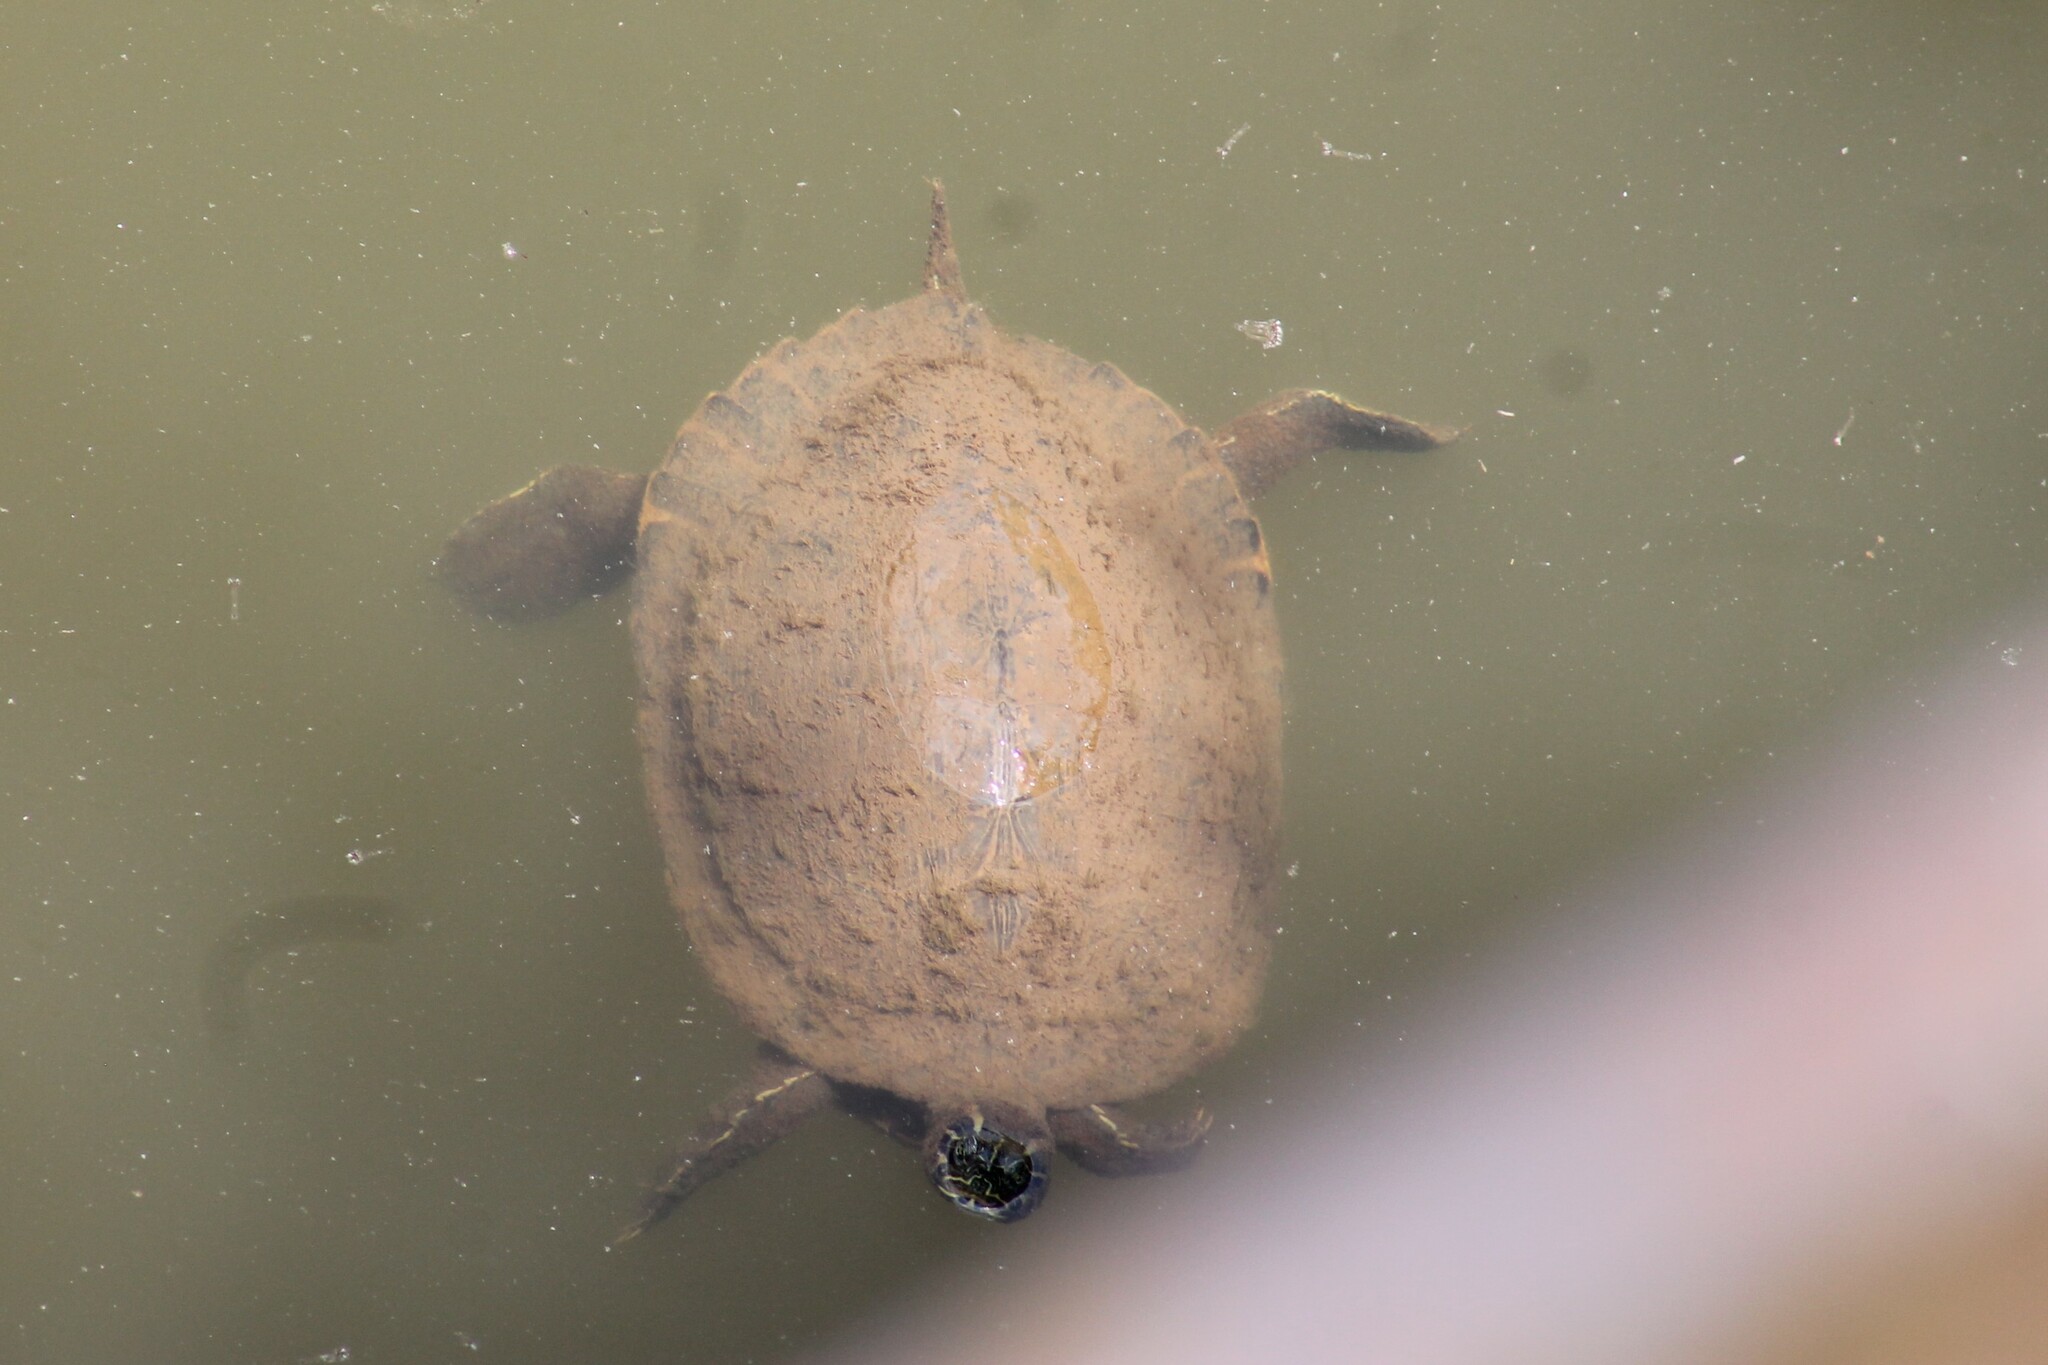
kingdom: Animalia
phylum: Chordata
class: Testudines
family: Emydidae
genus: Pseudemys
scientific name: Pseudemys concinna
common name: Eastern river cooter
